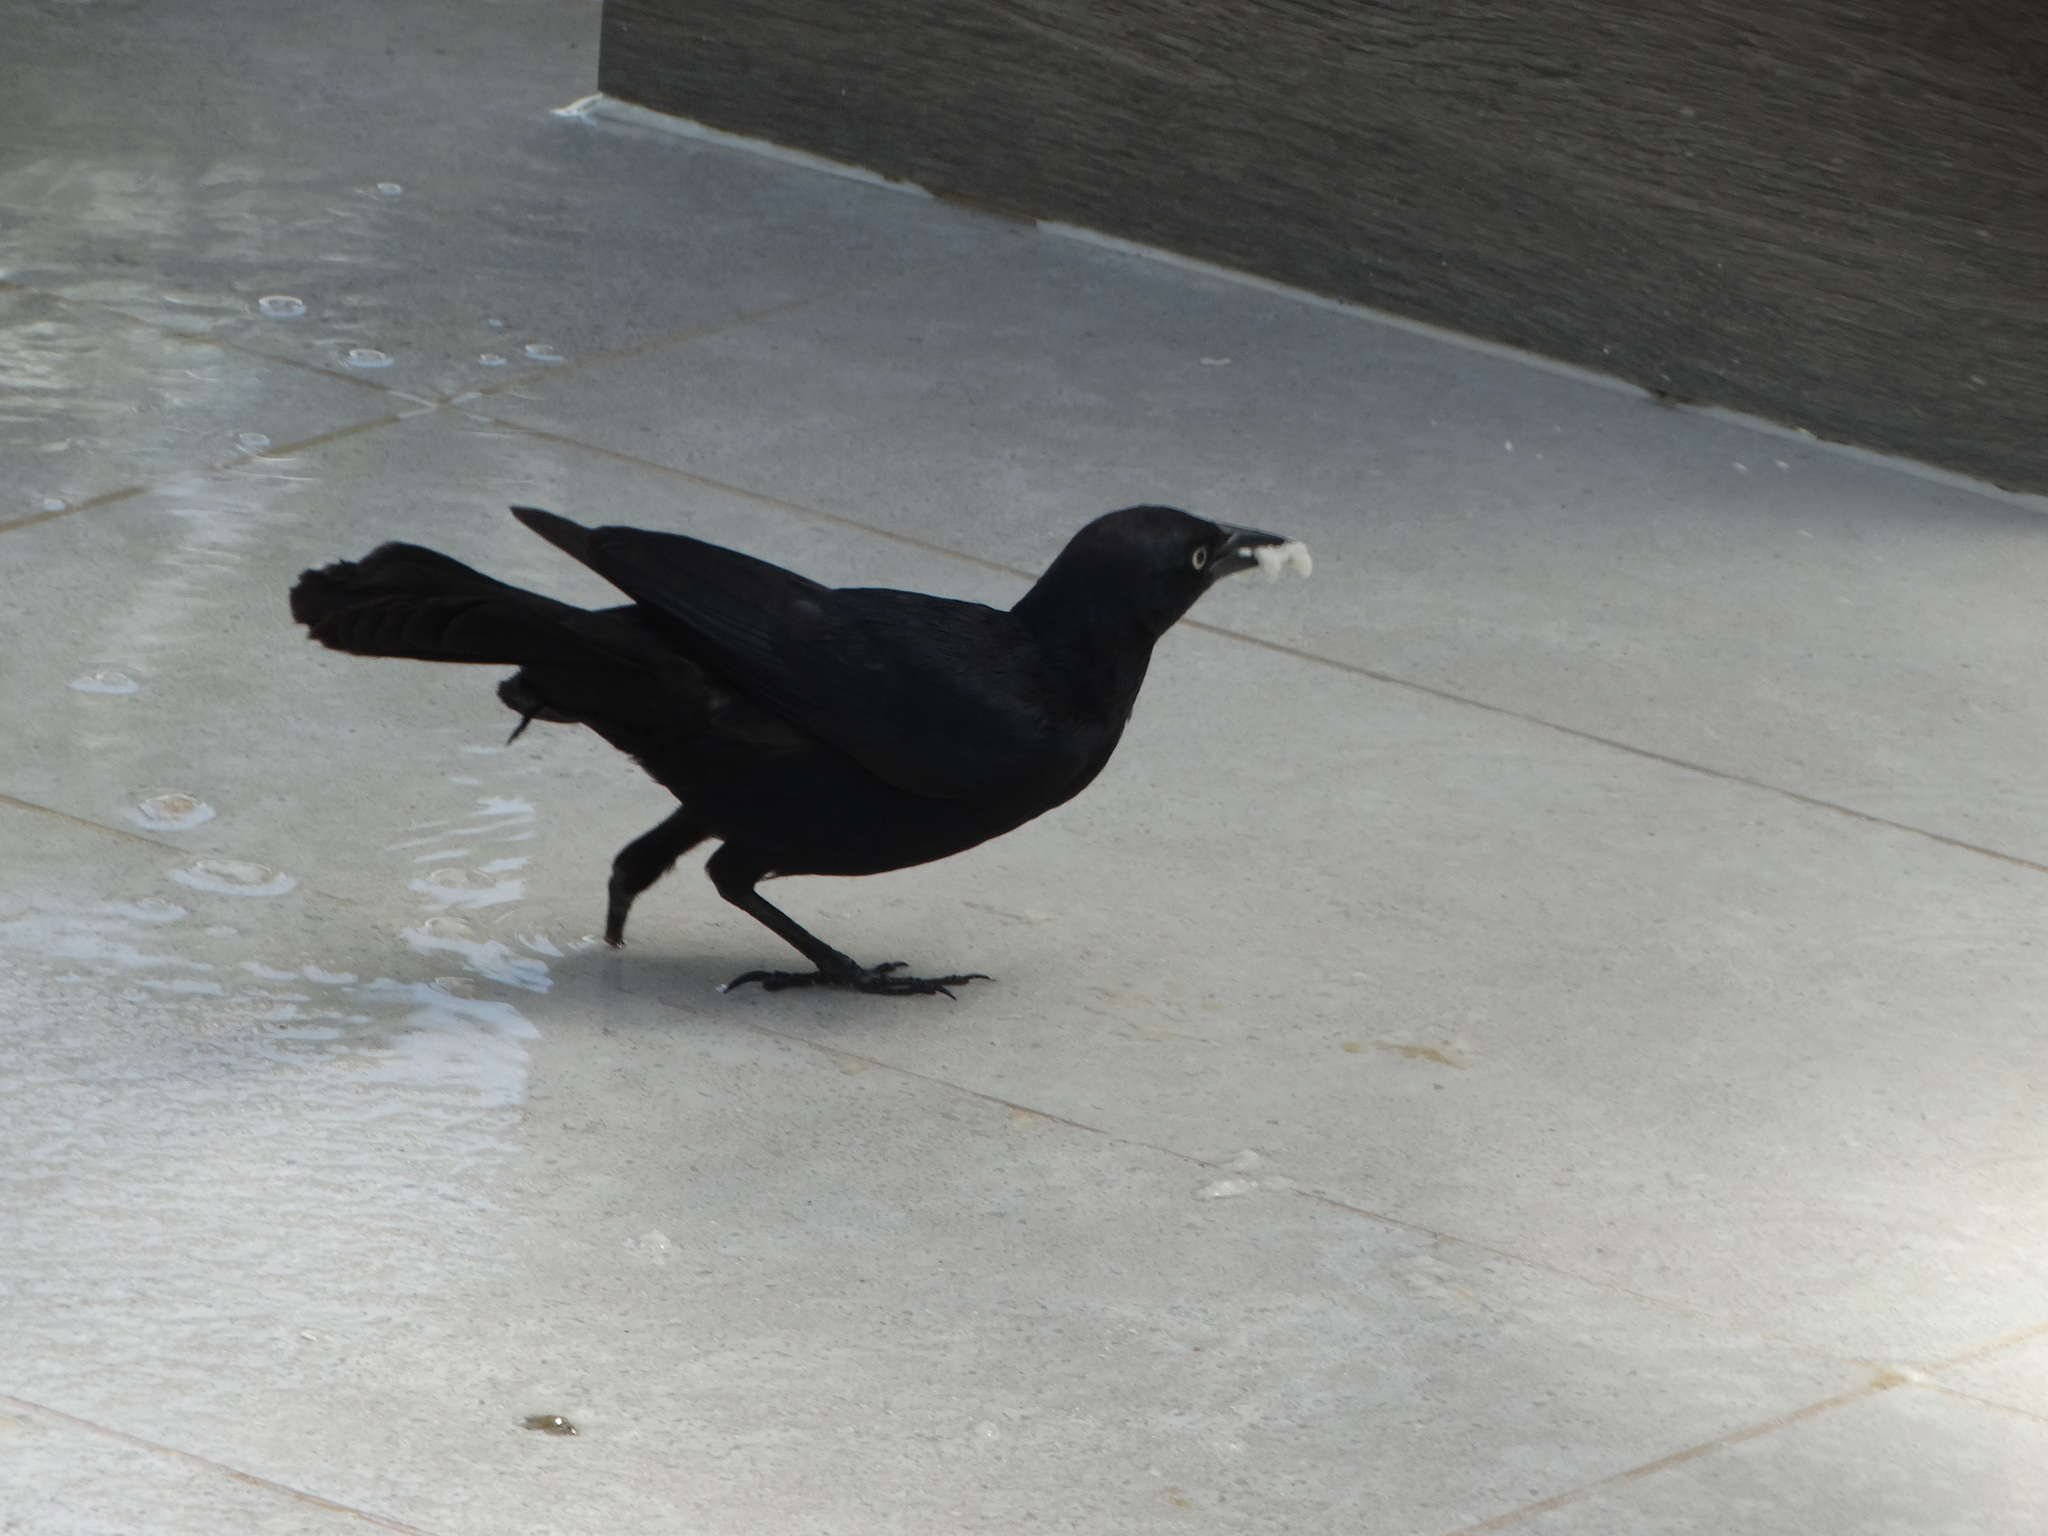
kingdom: Animalia
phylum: Chordata
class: Aves
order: Passeriformes
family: Icteridae
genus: Quiscalus
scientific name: Quiscalus niger
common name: Greater antillean grackle
